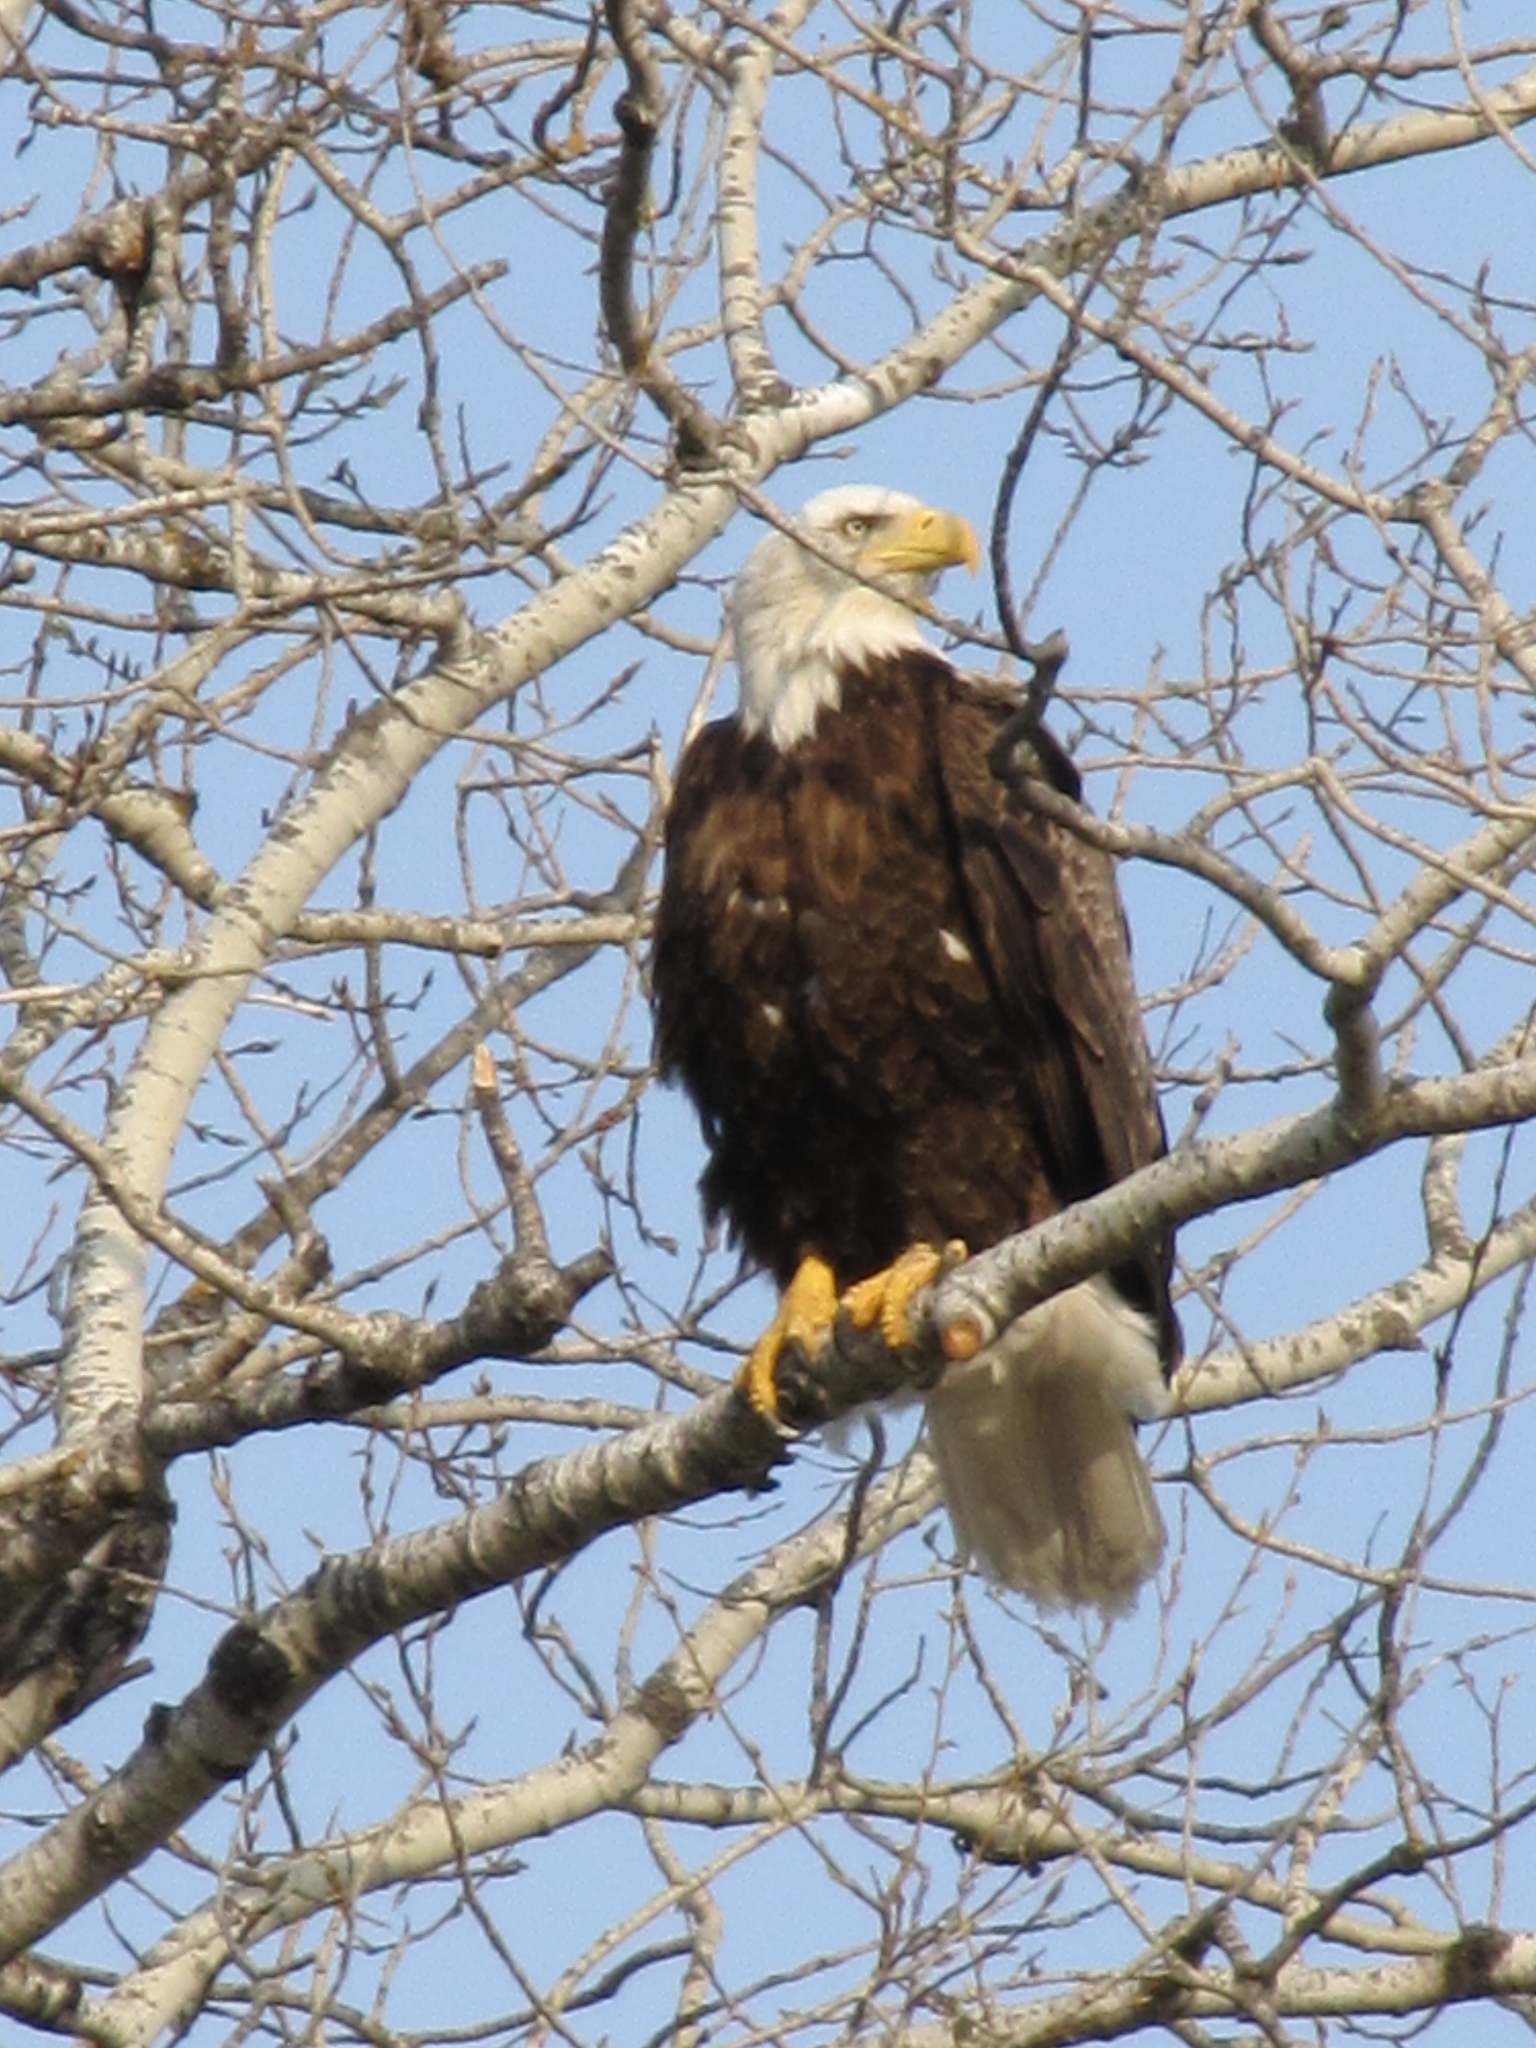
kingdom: Animalia
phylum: Chordata
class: Aves
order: Accipitriformes
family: Accipitridae
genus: Haliaeetus
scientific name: Haliaeetus leucocephalus
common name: Bald eagle
